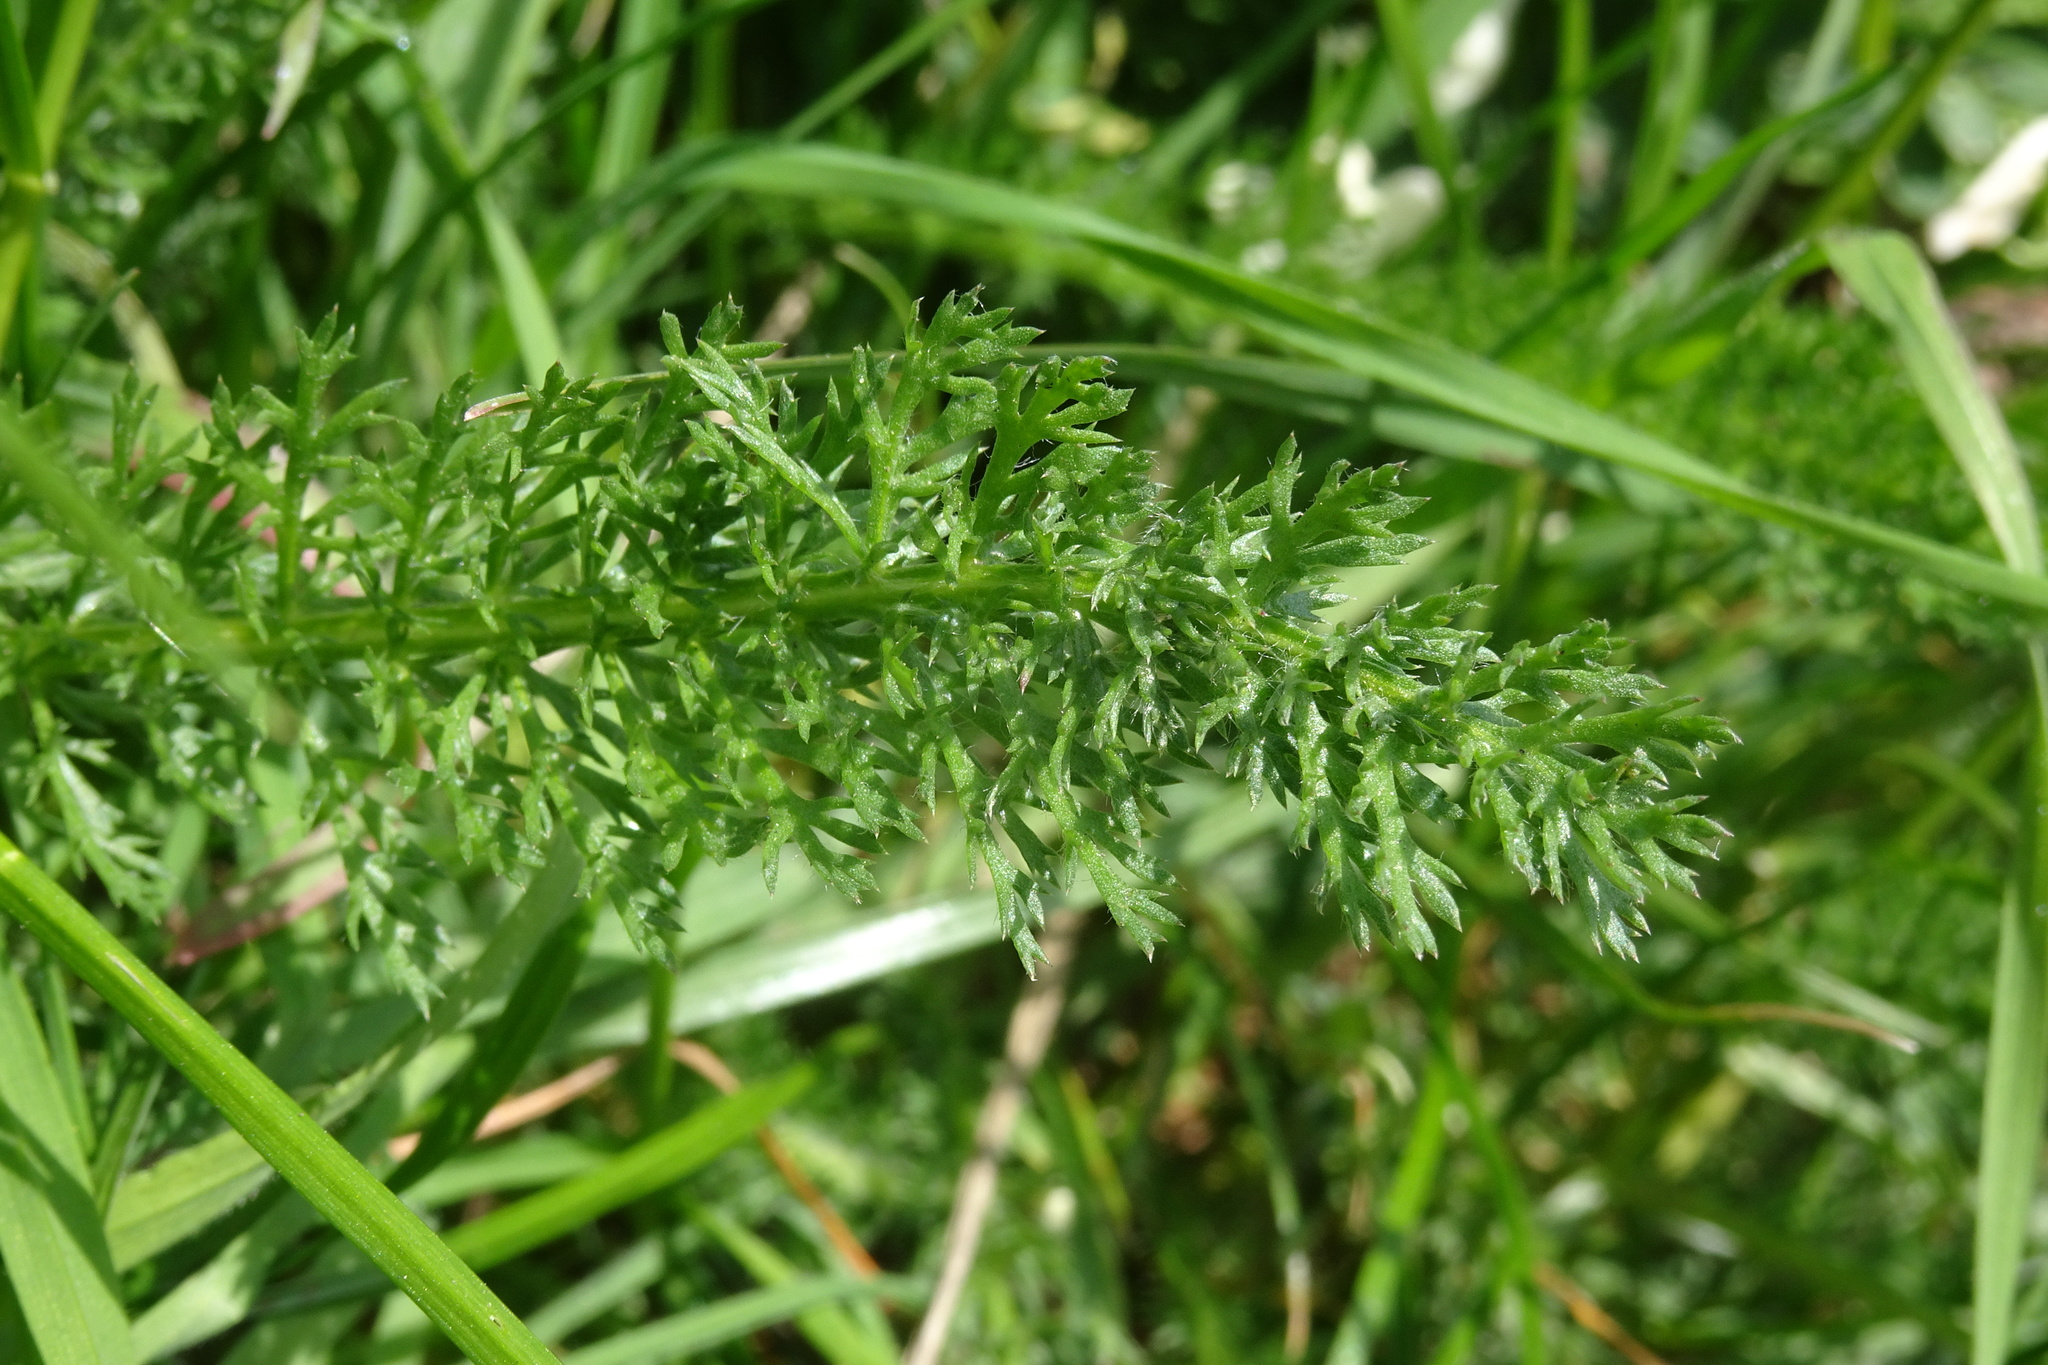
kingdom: Plantae
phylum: Tracheophyta
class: Magnoliopsida
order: Asterales
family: Asteraceae
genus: Achillea
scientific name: Achillea millefolium
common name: Yarrow
